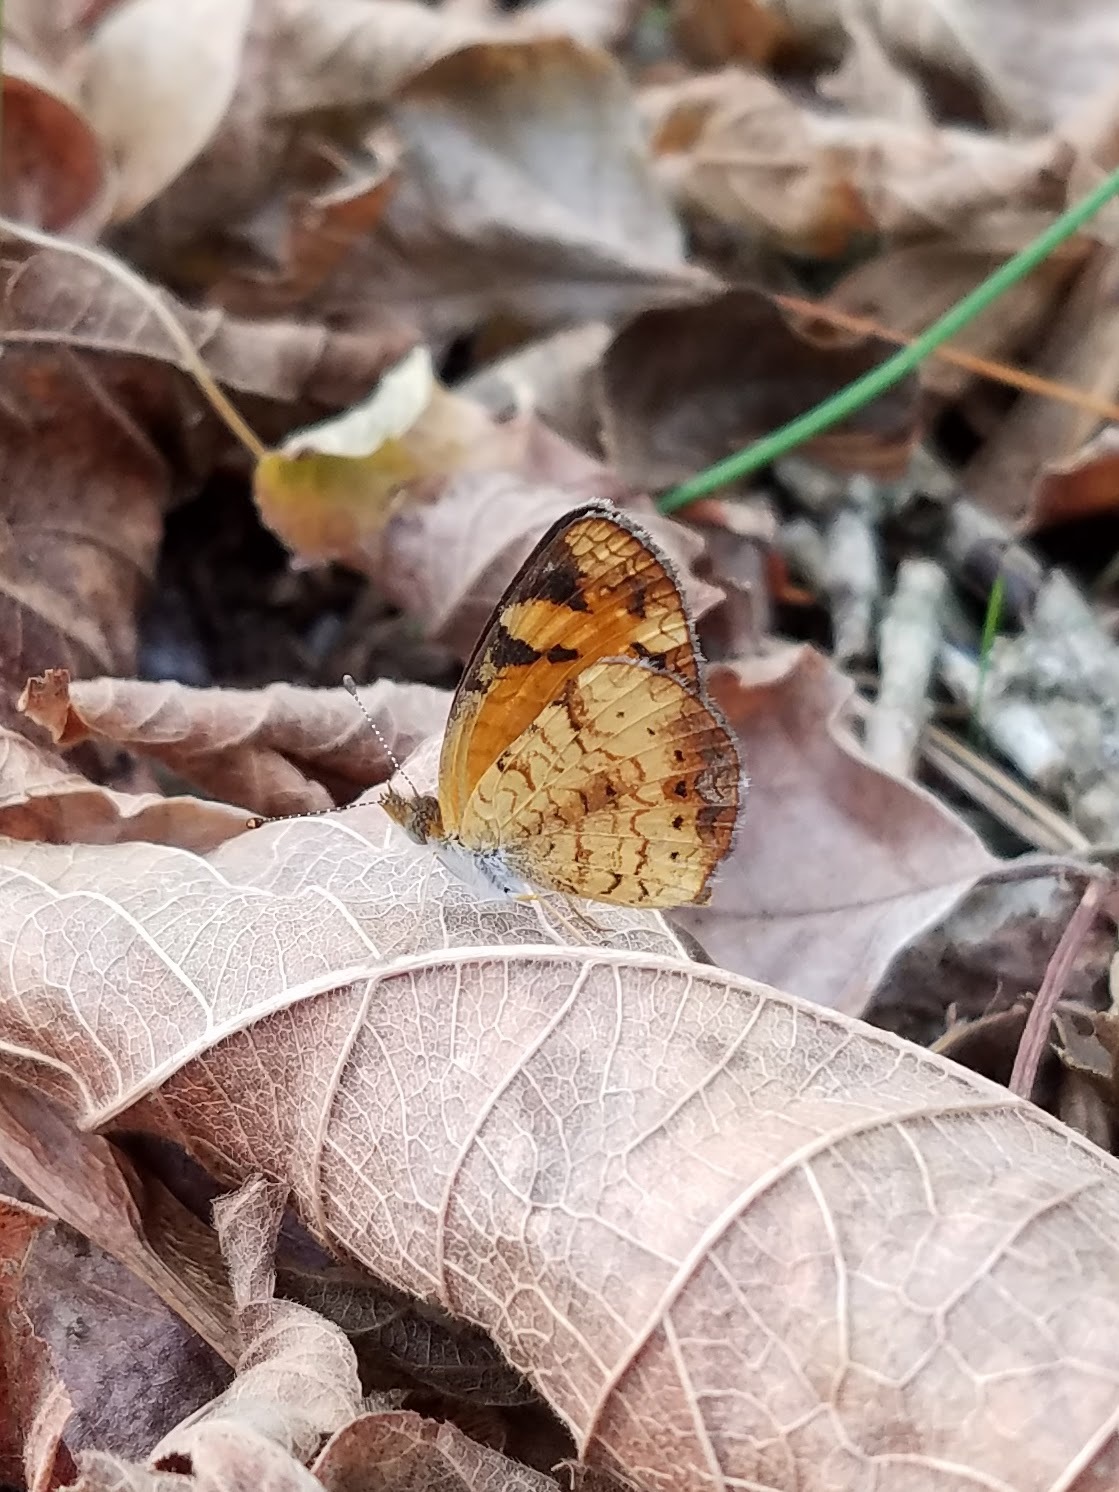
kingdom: Animalia
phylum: Arthropoda
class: Insecta
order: Lepidoptera
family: Nymphalidae
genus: Phyciodes
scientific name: Phyciodes tharos
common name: Pearl crescent
